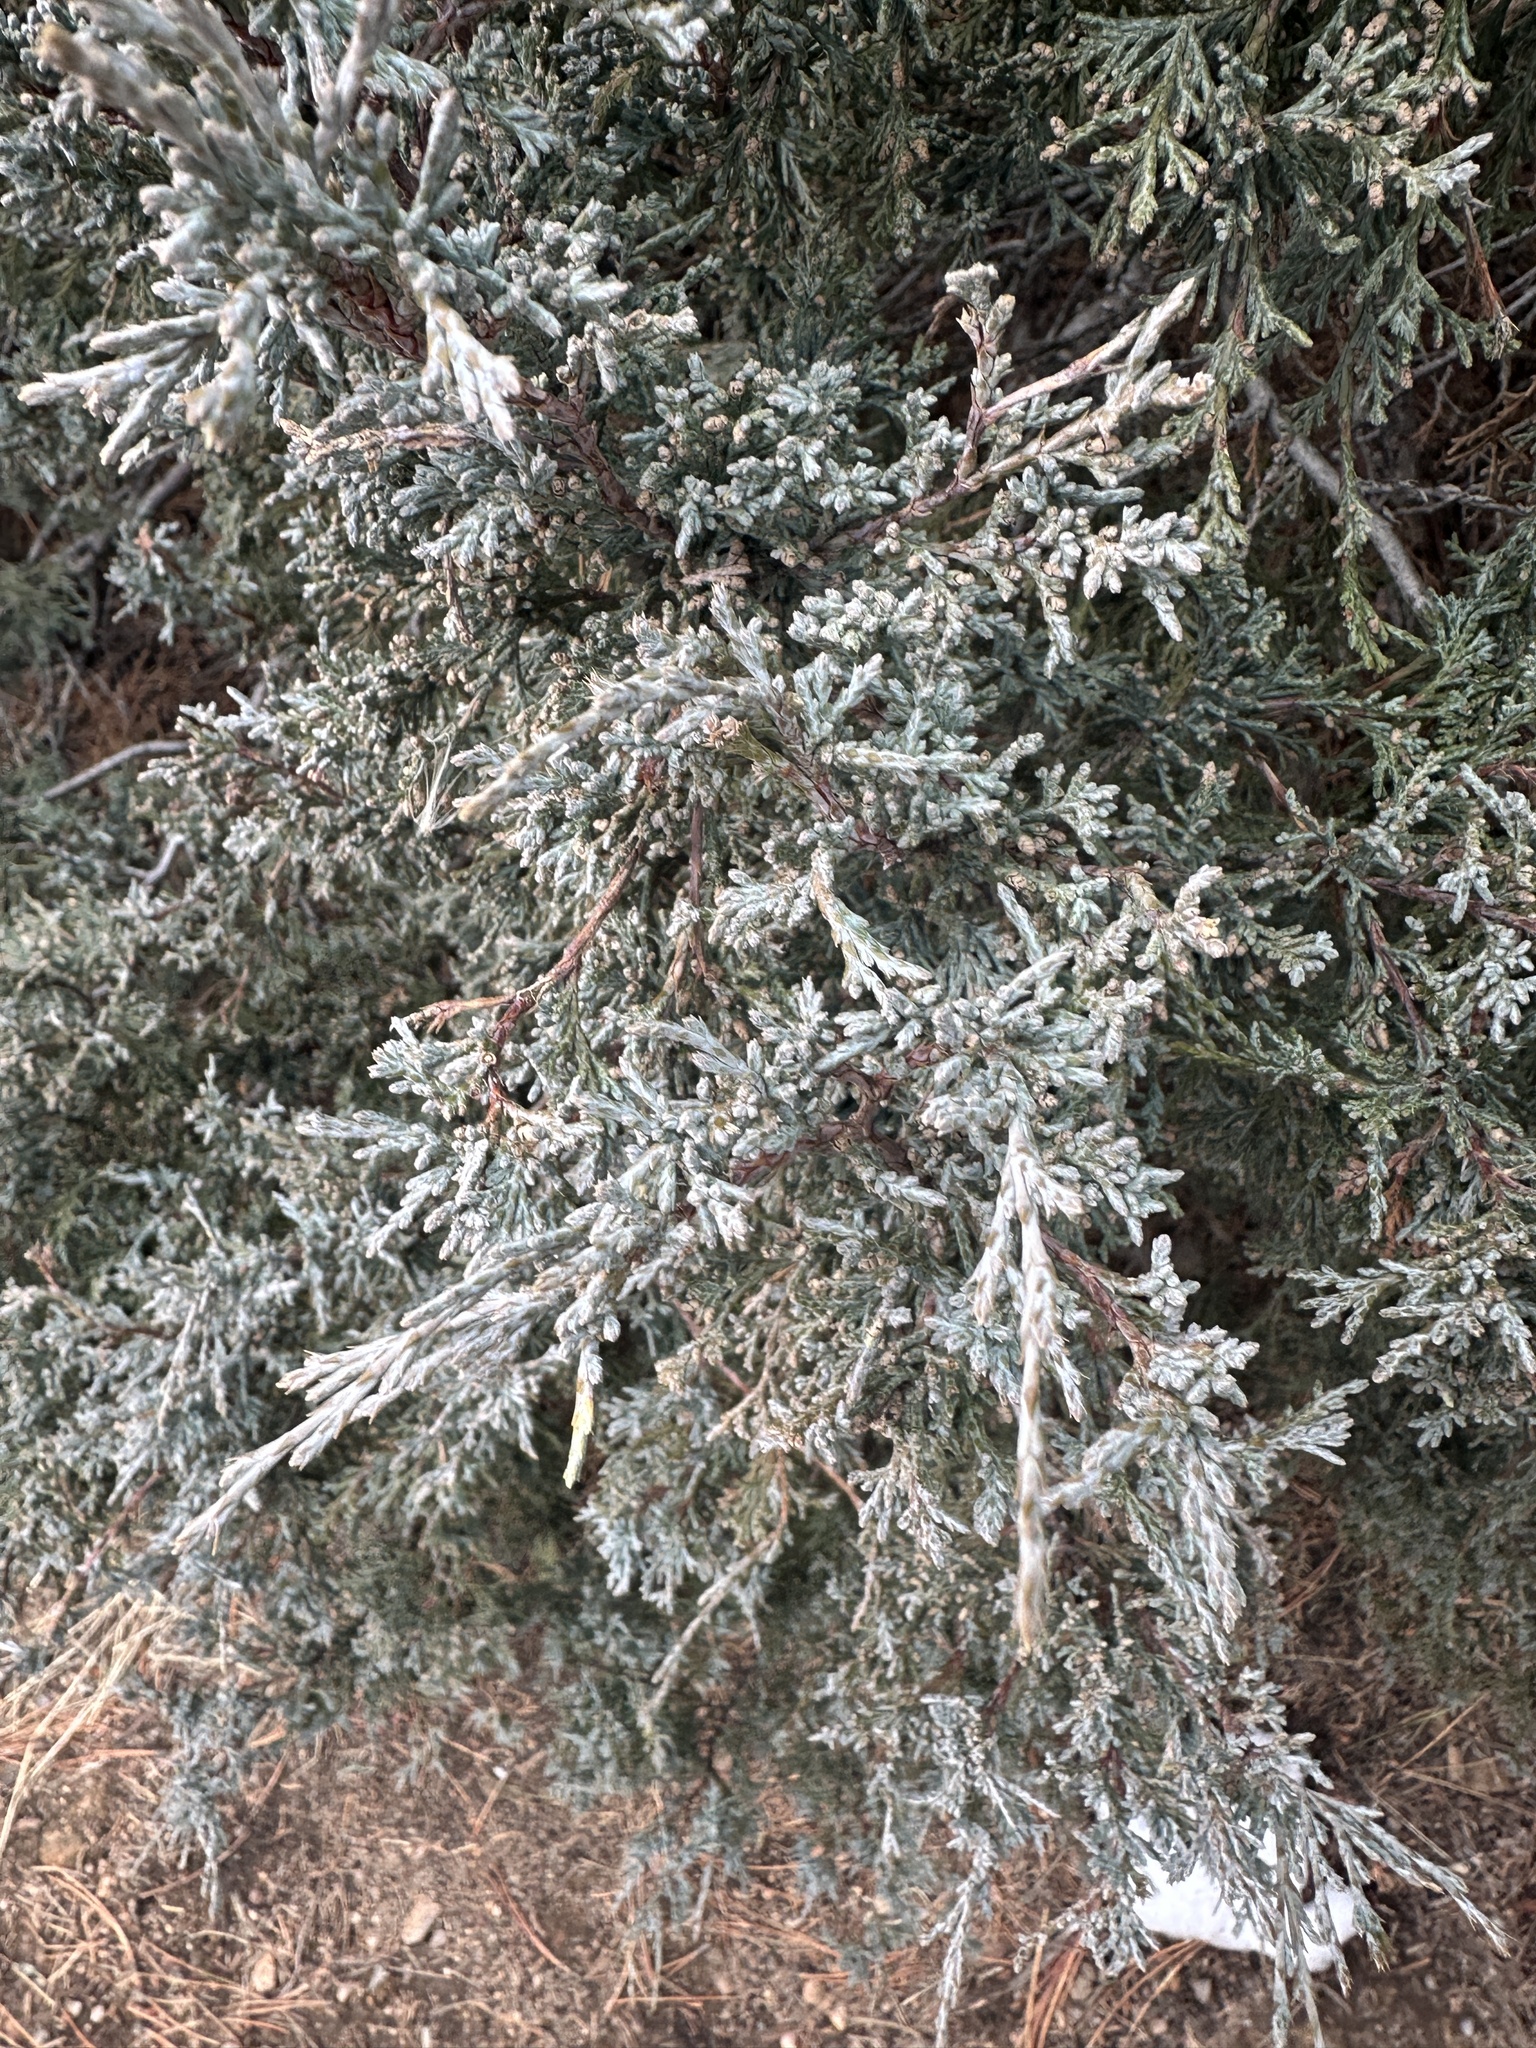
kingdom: Plantae
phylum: Tracheophyta
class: Pinopsida
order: Pinales
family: Cupressaceae
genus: Juniperus
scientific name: Juniperus scopulorum
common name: Rocky mountain juniper
